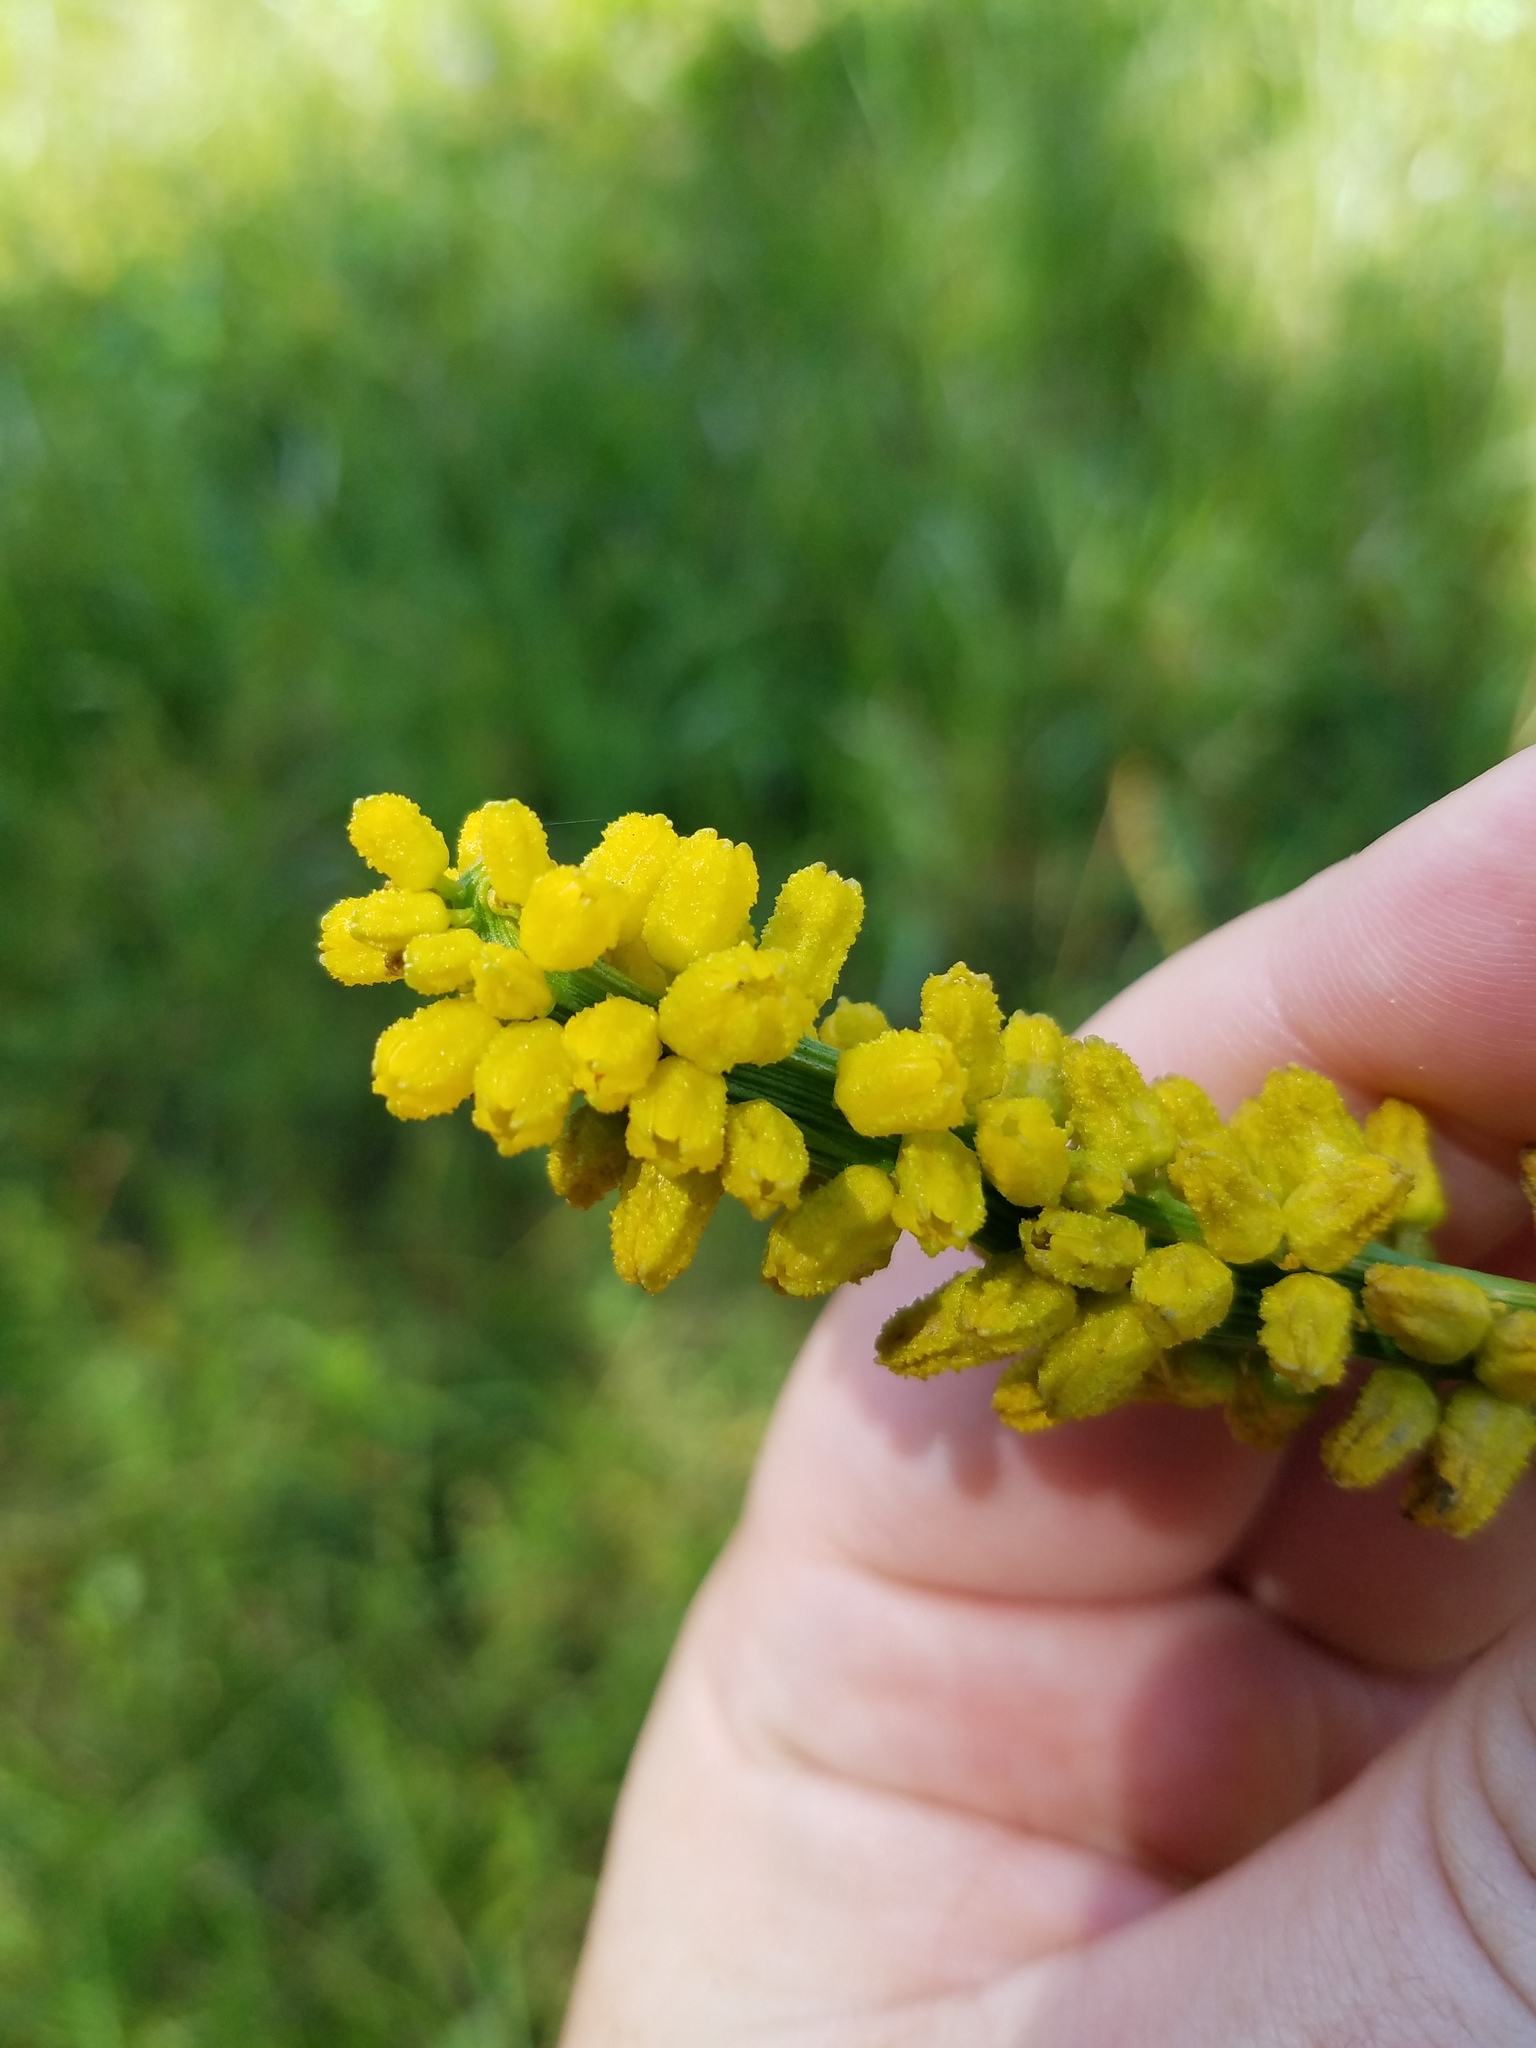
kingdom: Plantae
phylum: Tracheophyta
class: Liliopsida
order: Dioscoreales
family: Nartheciaceae
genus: Aletris
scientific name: Aletris aurea
